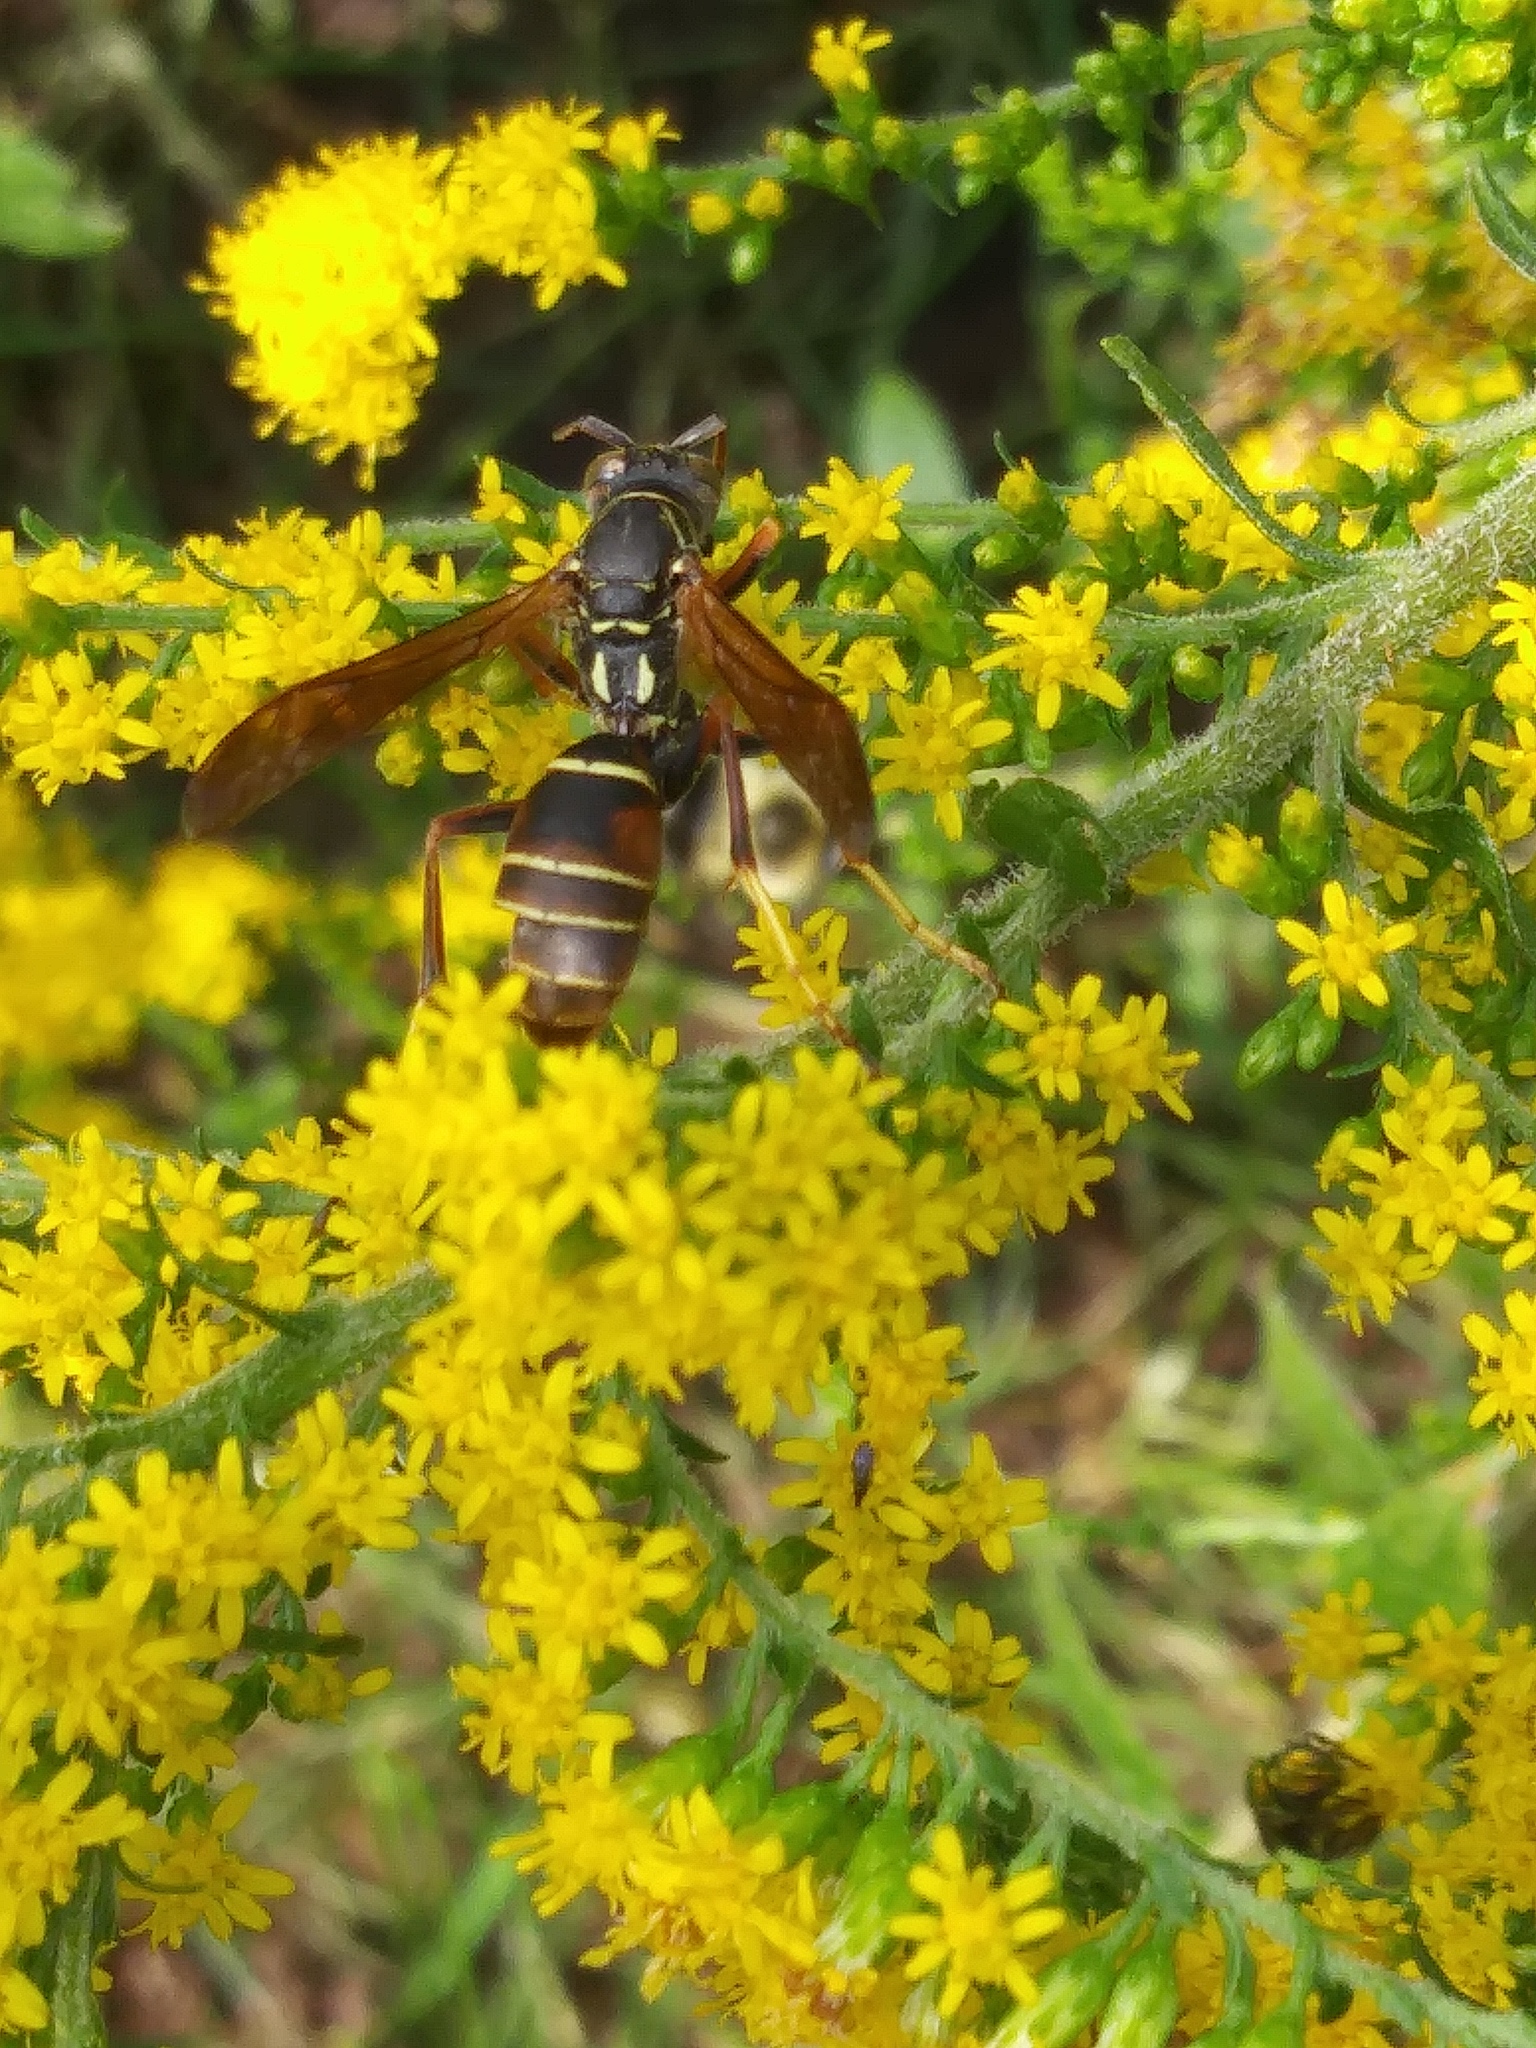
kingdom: Animalia
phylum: Arthropoda
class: Insecta
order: Hymenoptera
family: Eumenidae
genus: Polistes
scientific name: Polistes fuscatus
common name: Dark paper wasp
